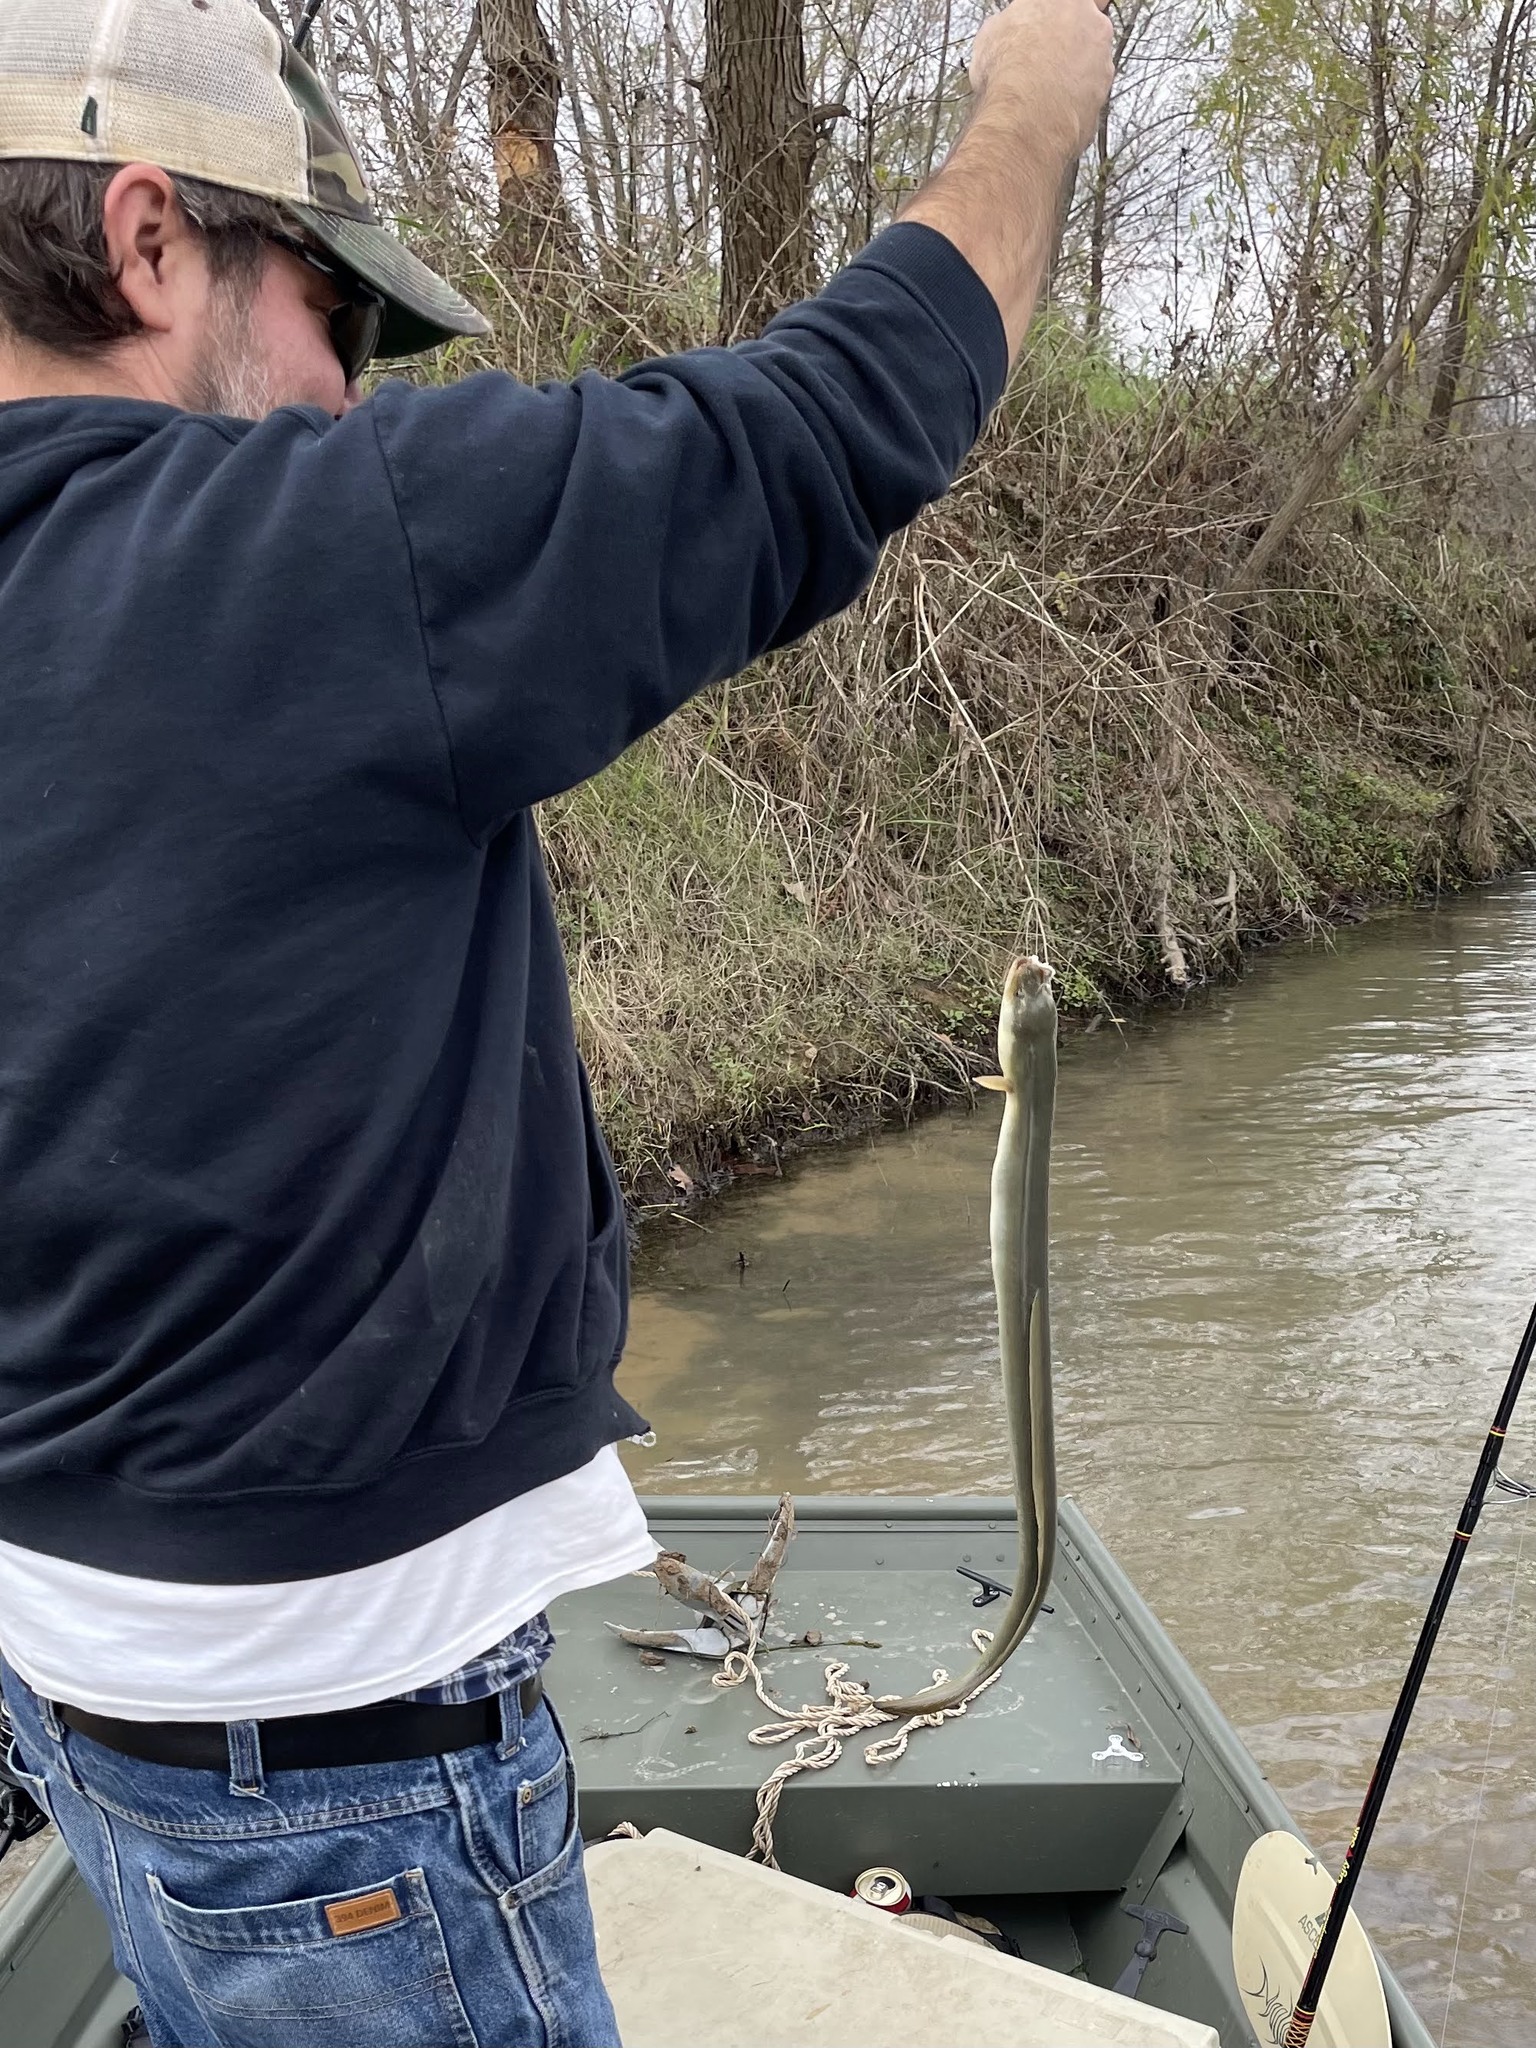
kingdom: Animalia
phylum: Chordata
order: Anguilliformes
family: Anguillidae
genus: Anguilla
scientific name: Anguilla rostrata
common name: American eel
